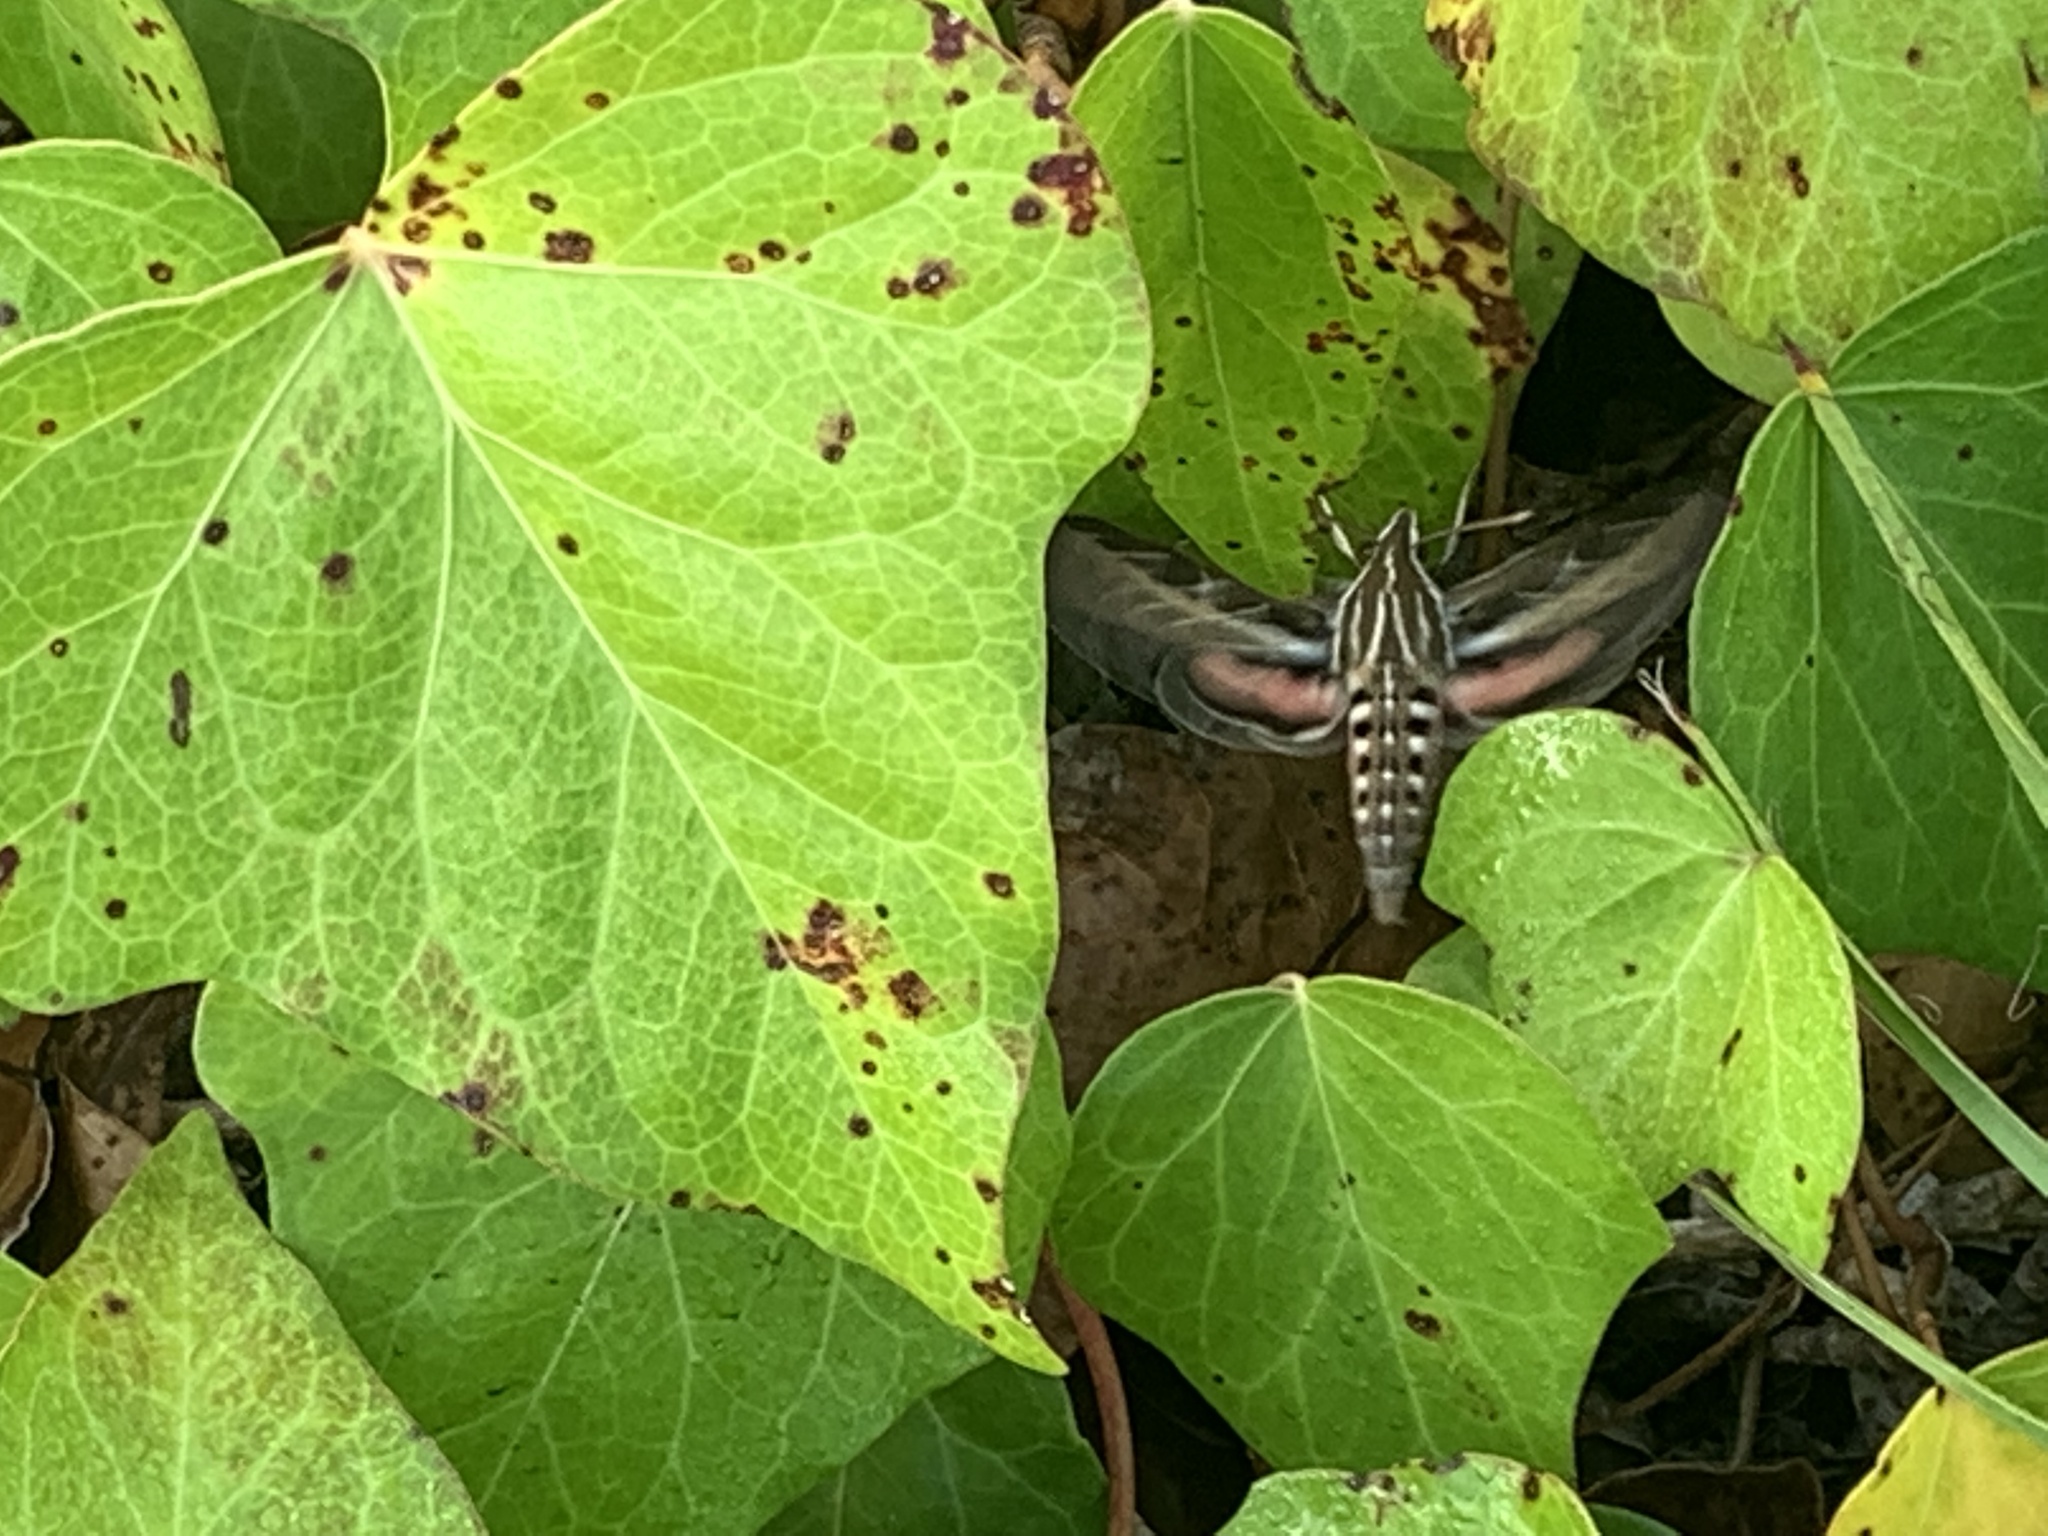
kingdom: Animalia
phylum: Arthropoda
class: Insecta
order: Lepidoptera
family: Sphingidae
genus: Hyles
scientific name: Hyles lineata
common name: White-lined sphinx
